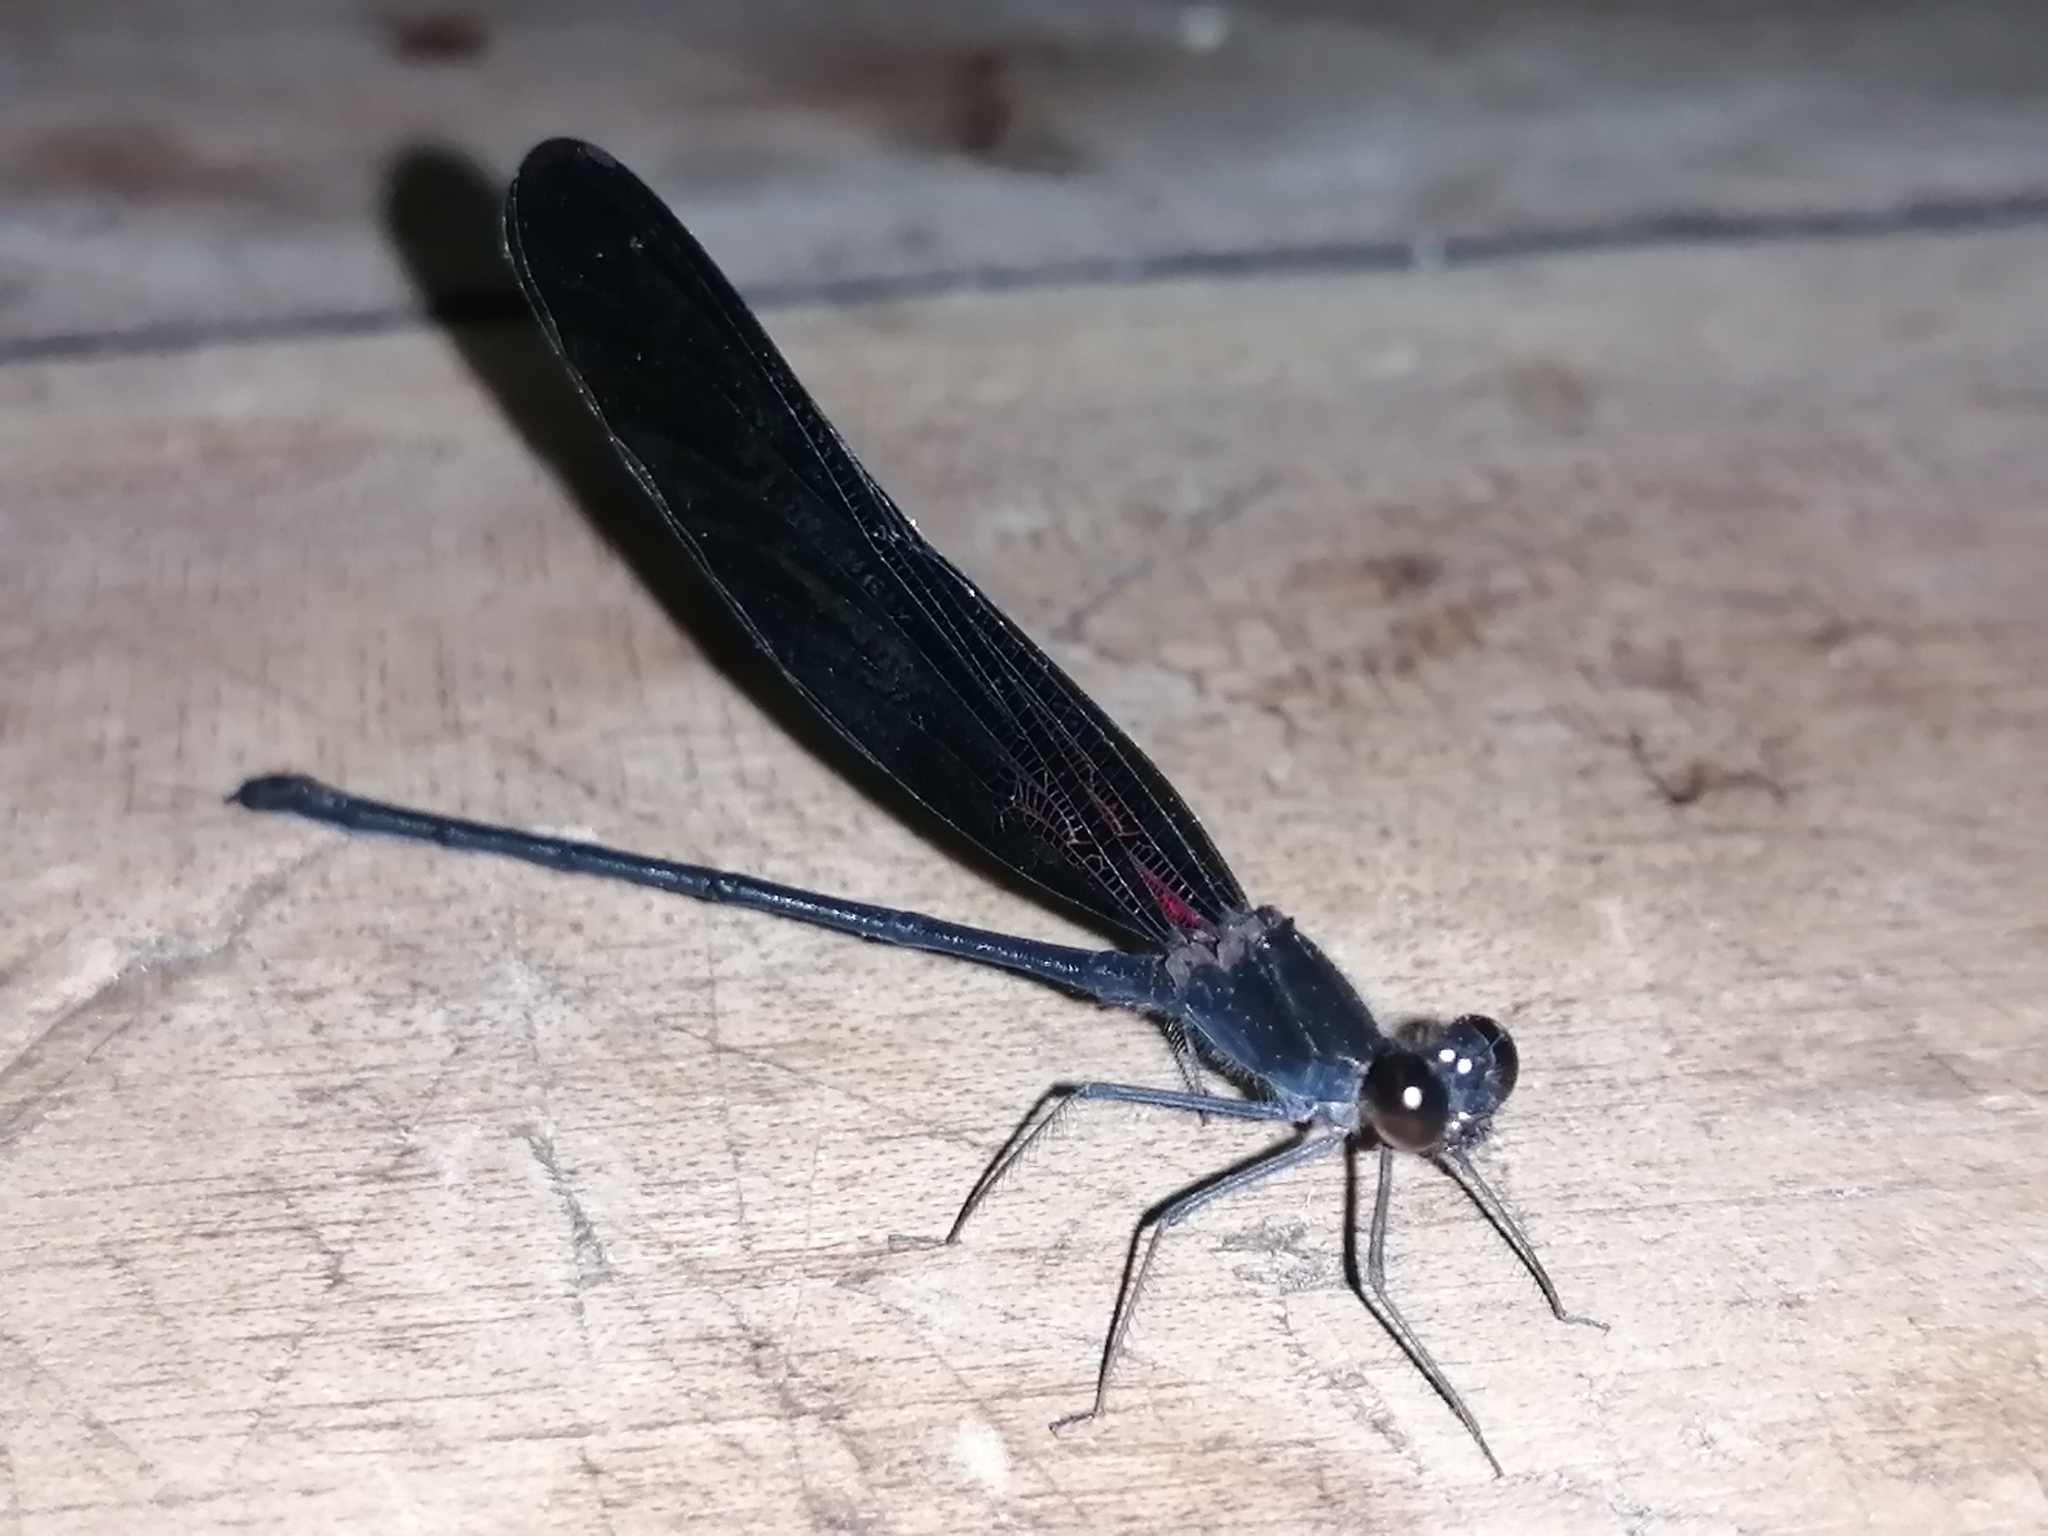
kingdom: Animalia
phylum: Arthropoda
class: Insecta
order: Odonata
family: Calopterygidae
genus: Hetaerina
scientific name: Hetaerina titia
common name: Smoky rubyspot
